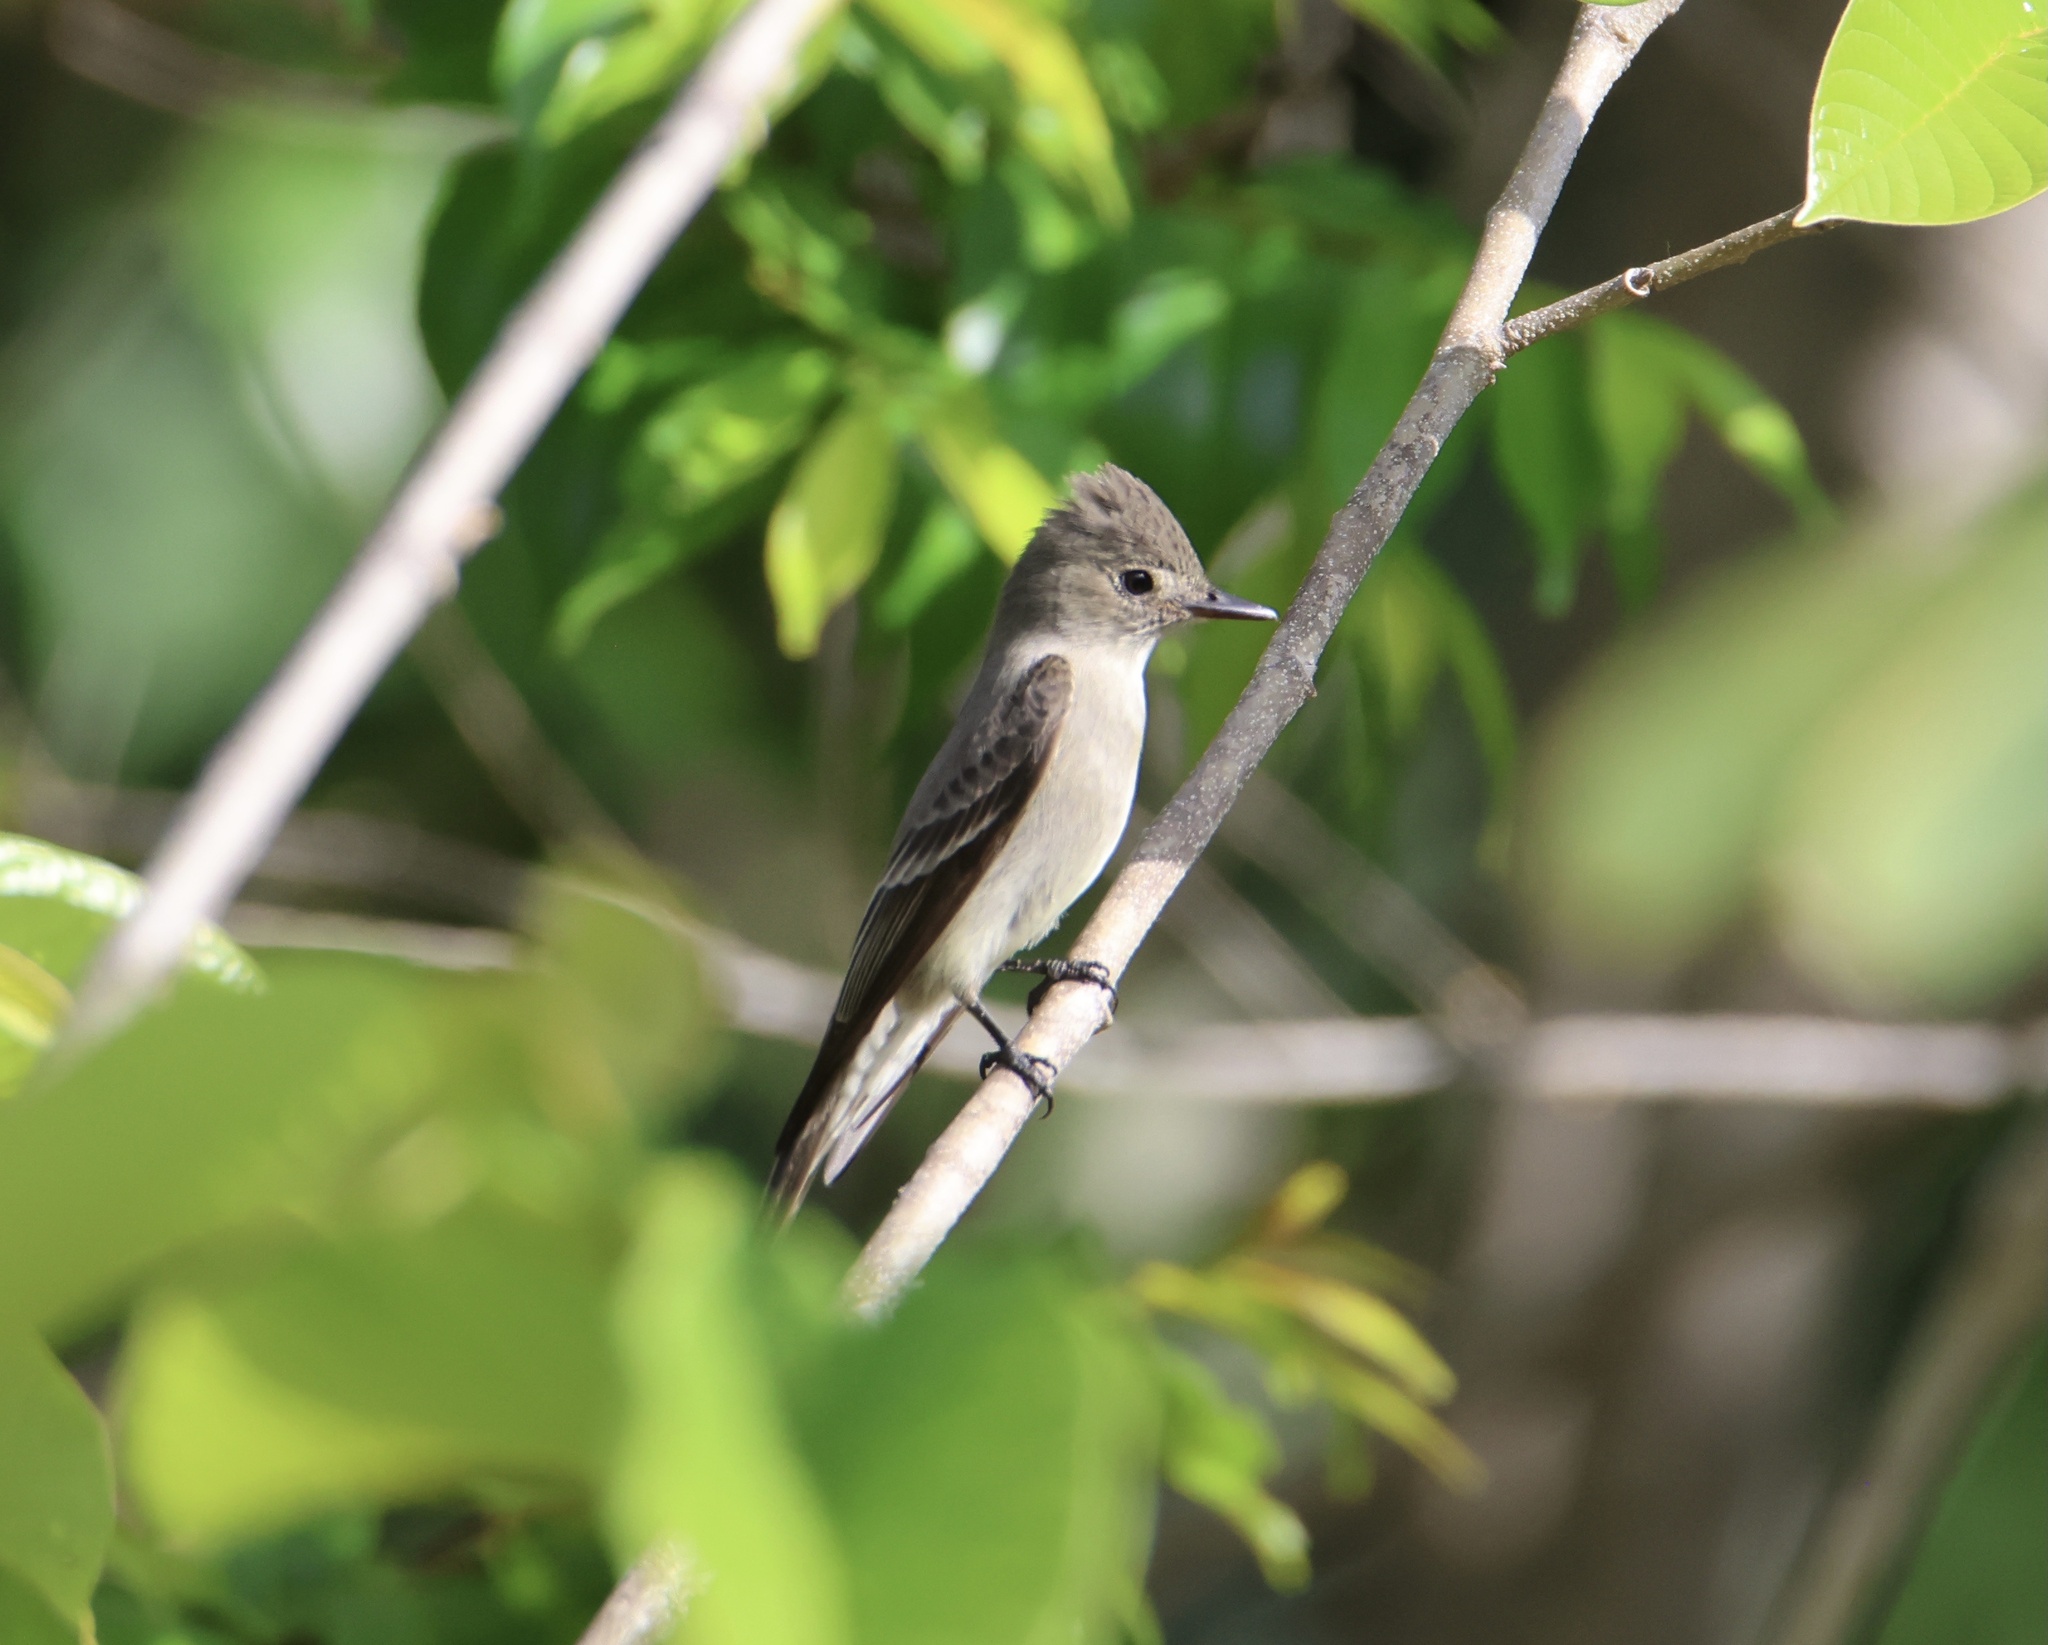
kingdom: Animalia
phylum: Chordata
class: Aves
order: Passeriformes
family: Tyrannidae
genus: Contopus
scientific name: Contopus sordidulus
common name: Western wood-pewee
